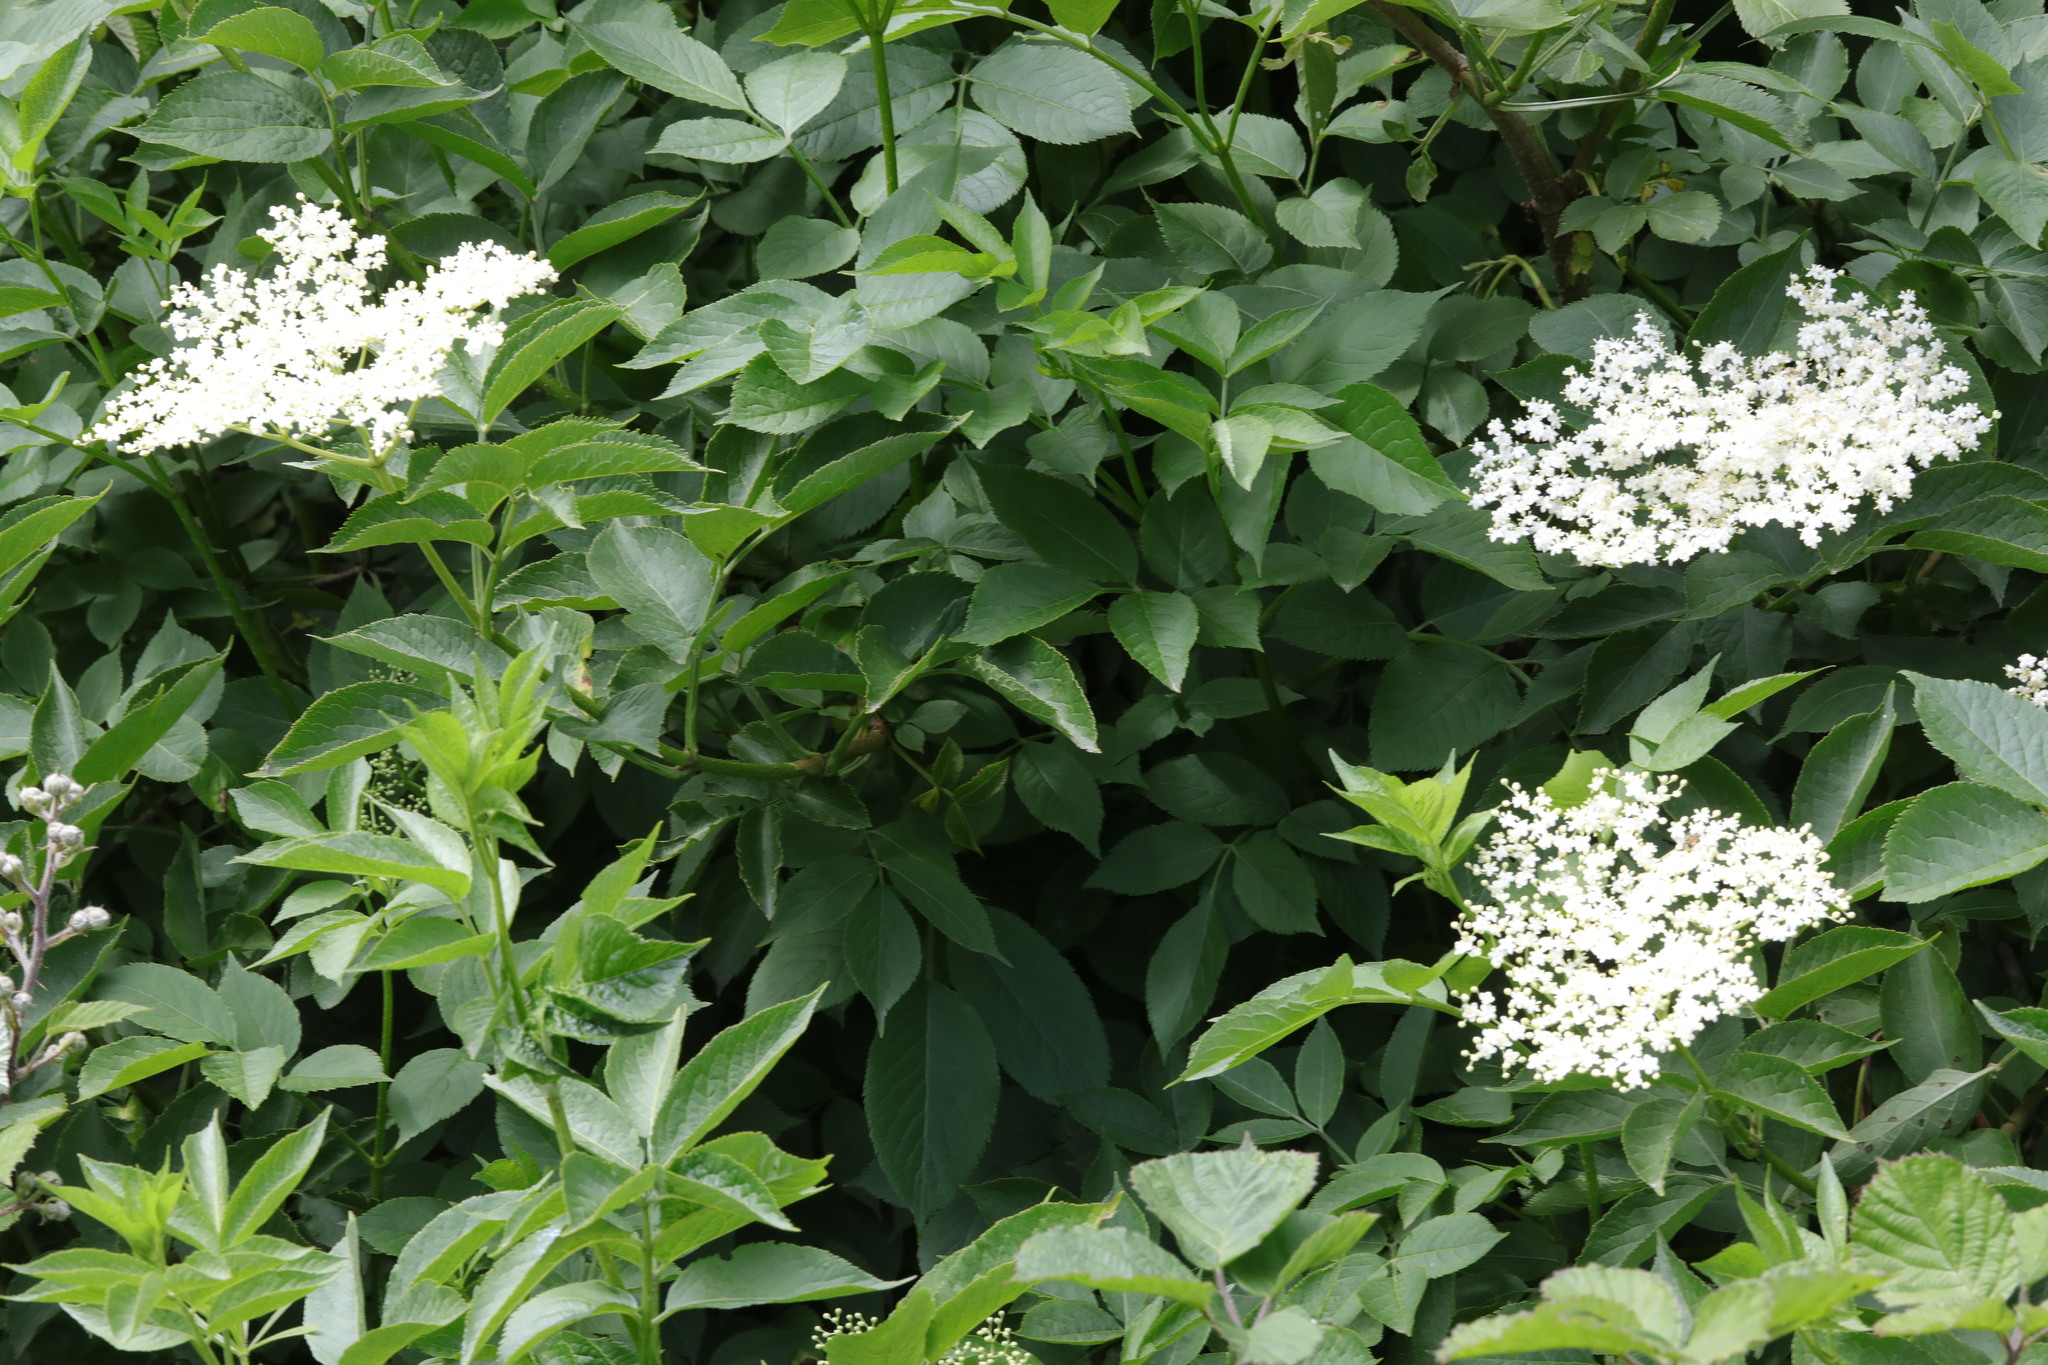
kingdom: Plantae
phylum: Tracheophyta
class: Magnoliopsida
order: Dipsacales
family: Viburnaceae
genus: Sambucus
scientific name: Sambucus nigra
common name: Elder
